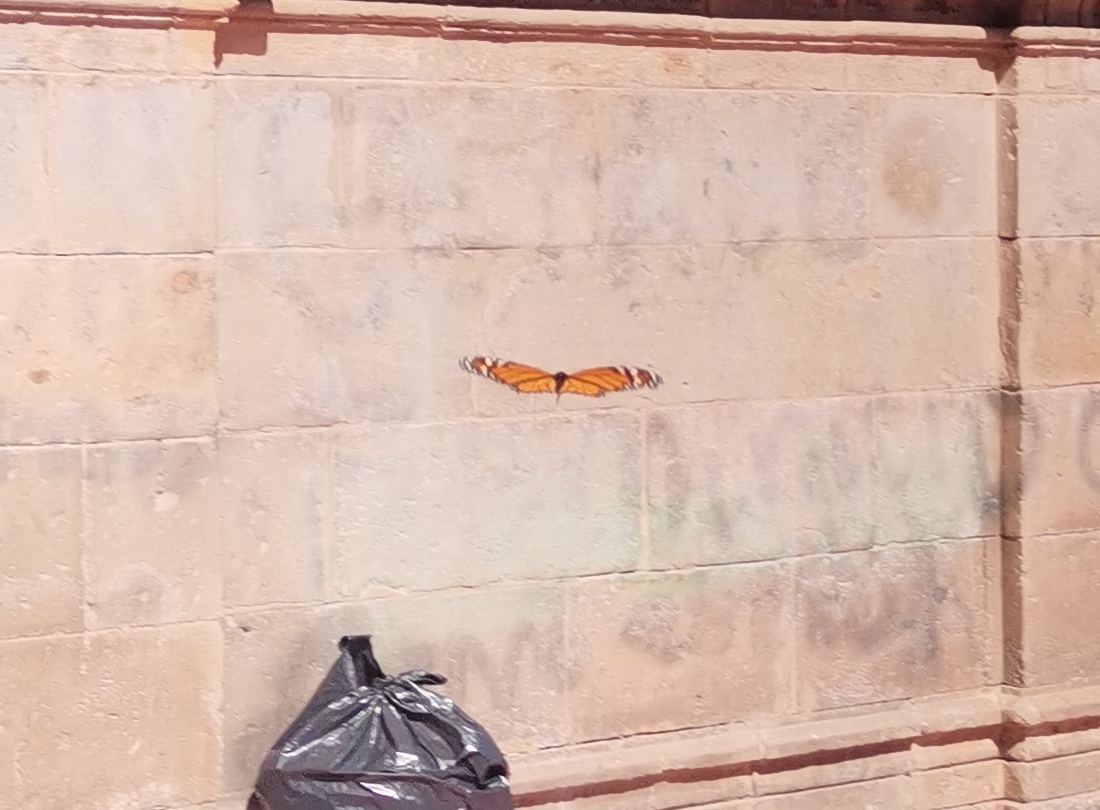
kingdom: Animalia
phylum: Arthropoda
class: Insecta
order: Lepidoptera
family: Nymphalidae
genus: Danaus
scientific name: Danaus plexippus
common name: Monarch
